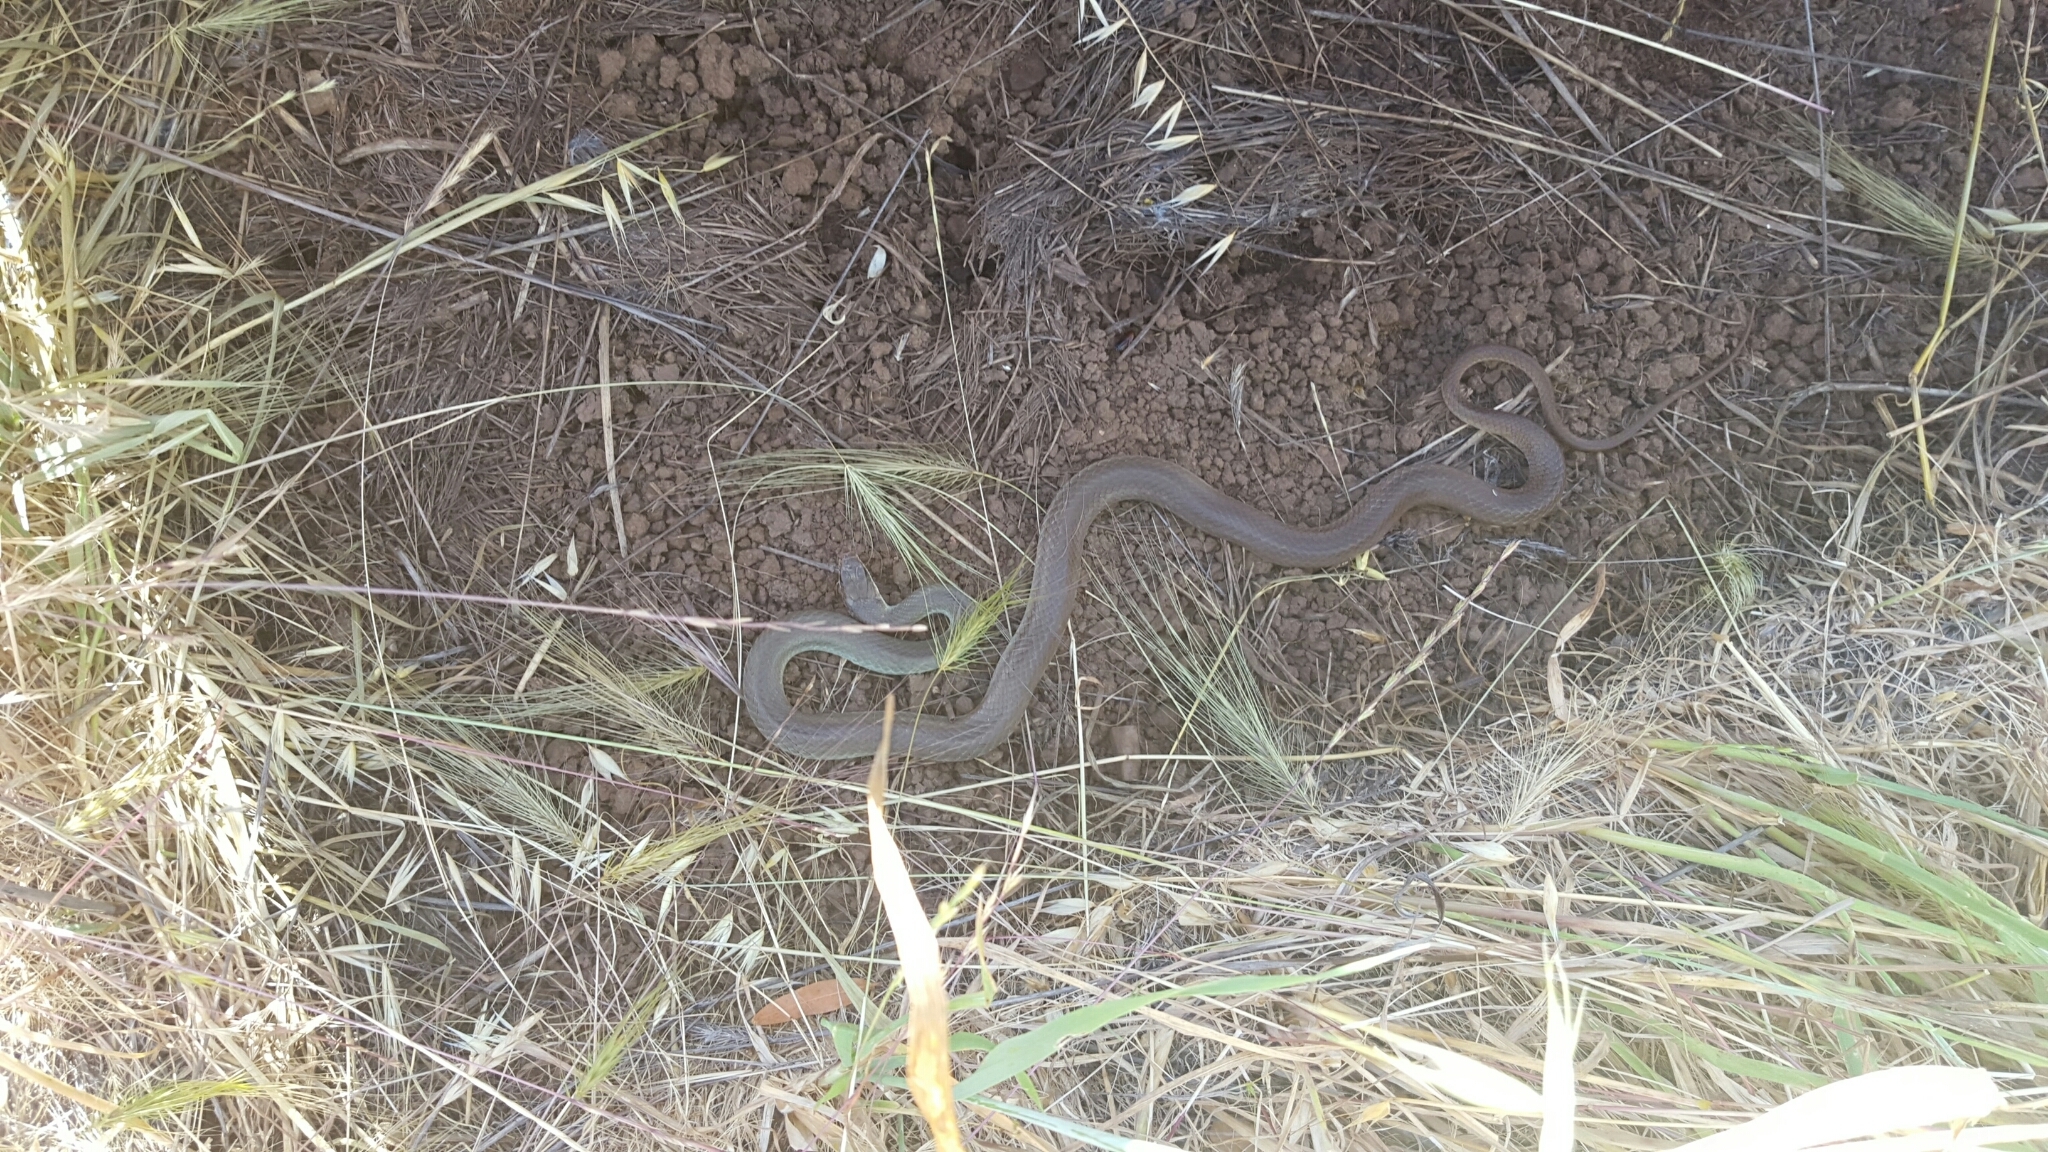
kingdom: Animalia
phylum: Chordata
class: Squamata
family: Colubridae
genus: Coluber
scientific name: Coluber constrictor
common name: Eastern racer
